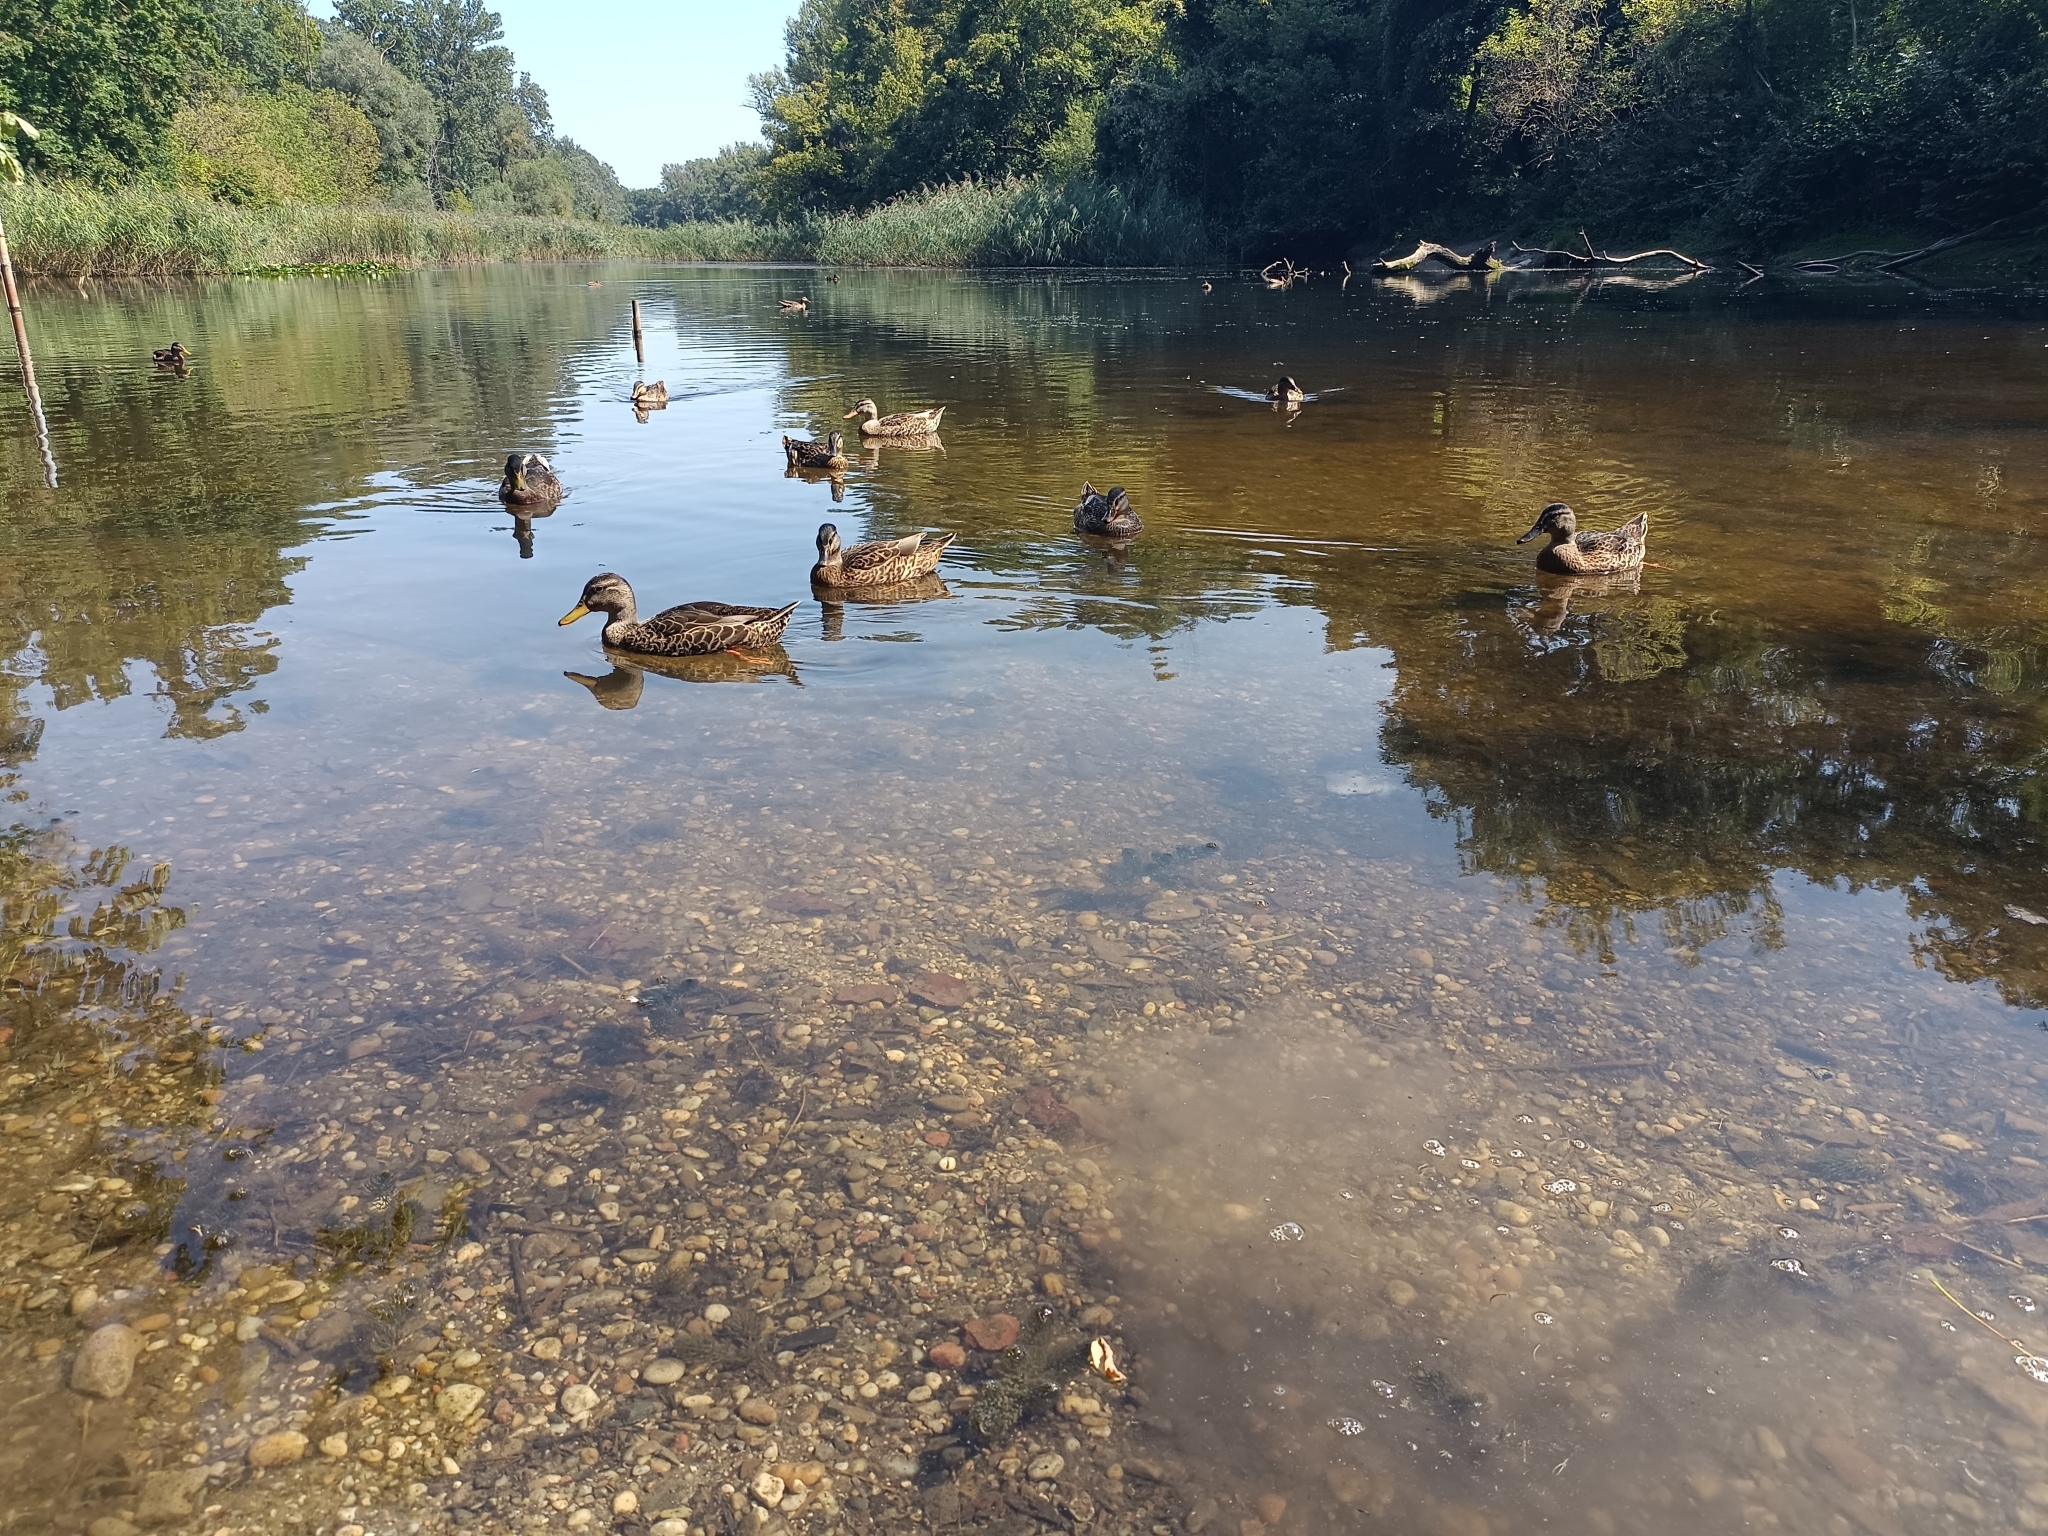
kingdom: Animalia
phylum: Chordata
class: Aves
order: Anseriformes
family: Anatidae
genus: Anas
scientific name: Anas platyrhynchos
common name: Mallard
